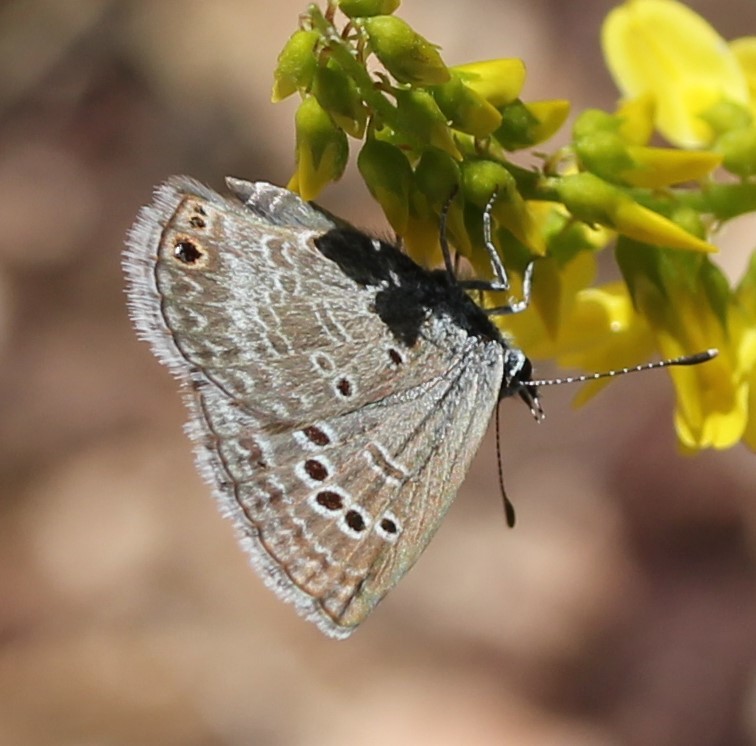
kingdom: Animalia
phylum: Arthropoda
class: Insecta
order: Lepidoptera
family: Lycaenidae
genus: Echinargus
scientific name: Echinargus isola
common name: Reakirt's blue
